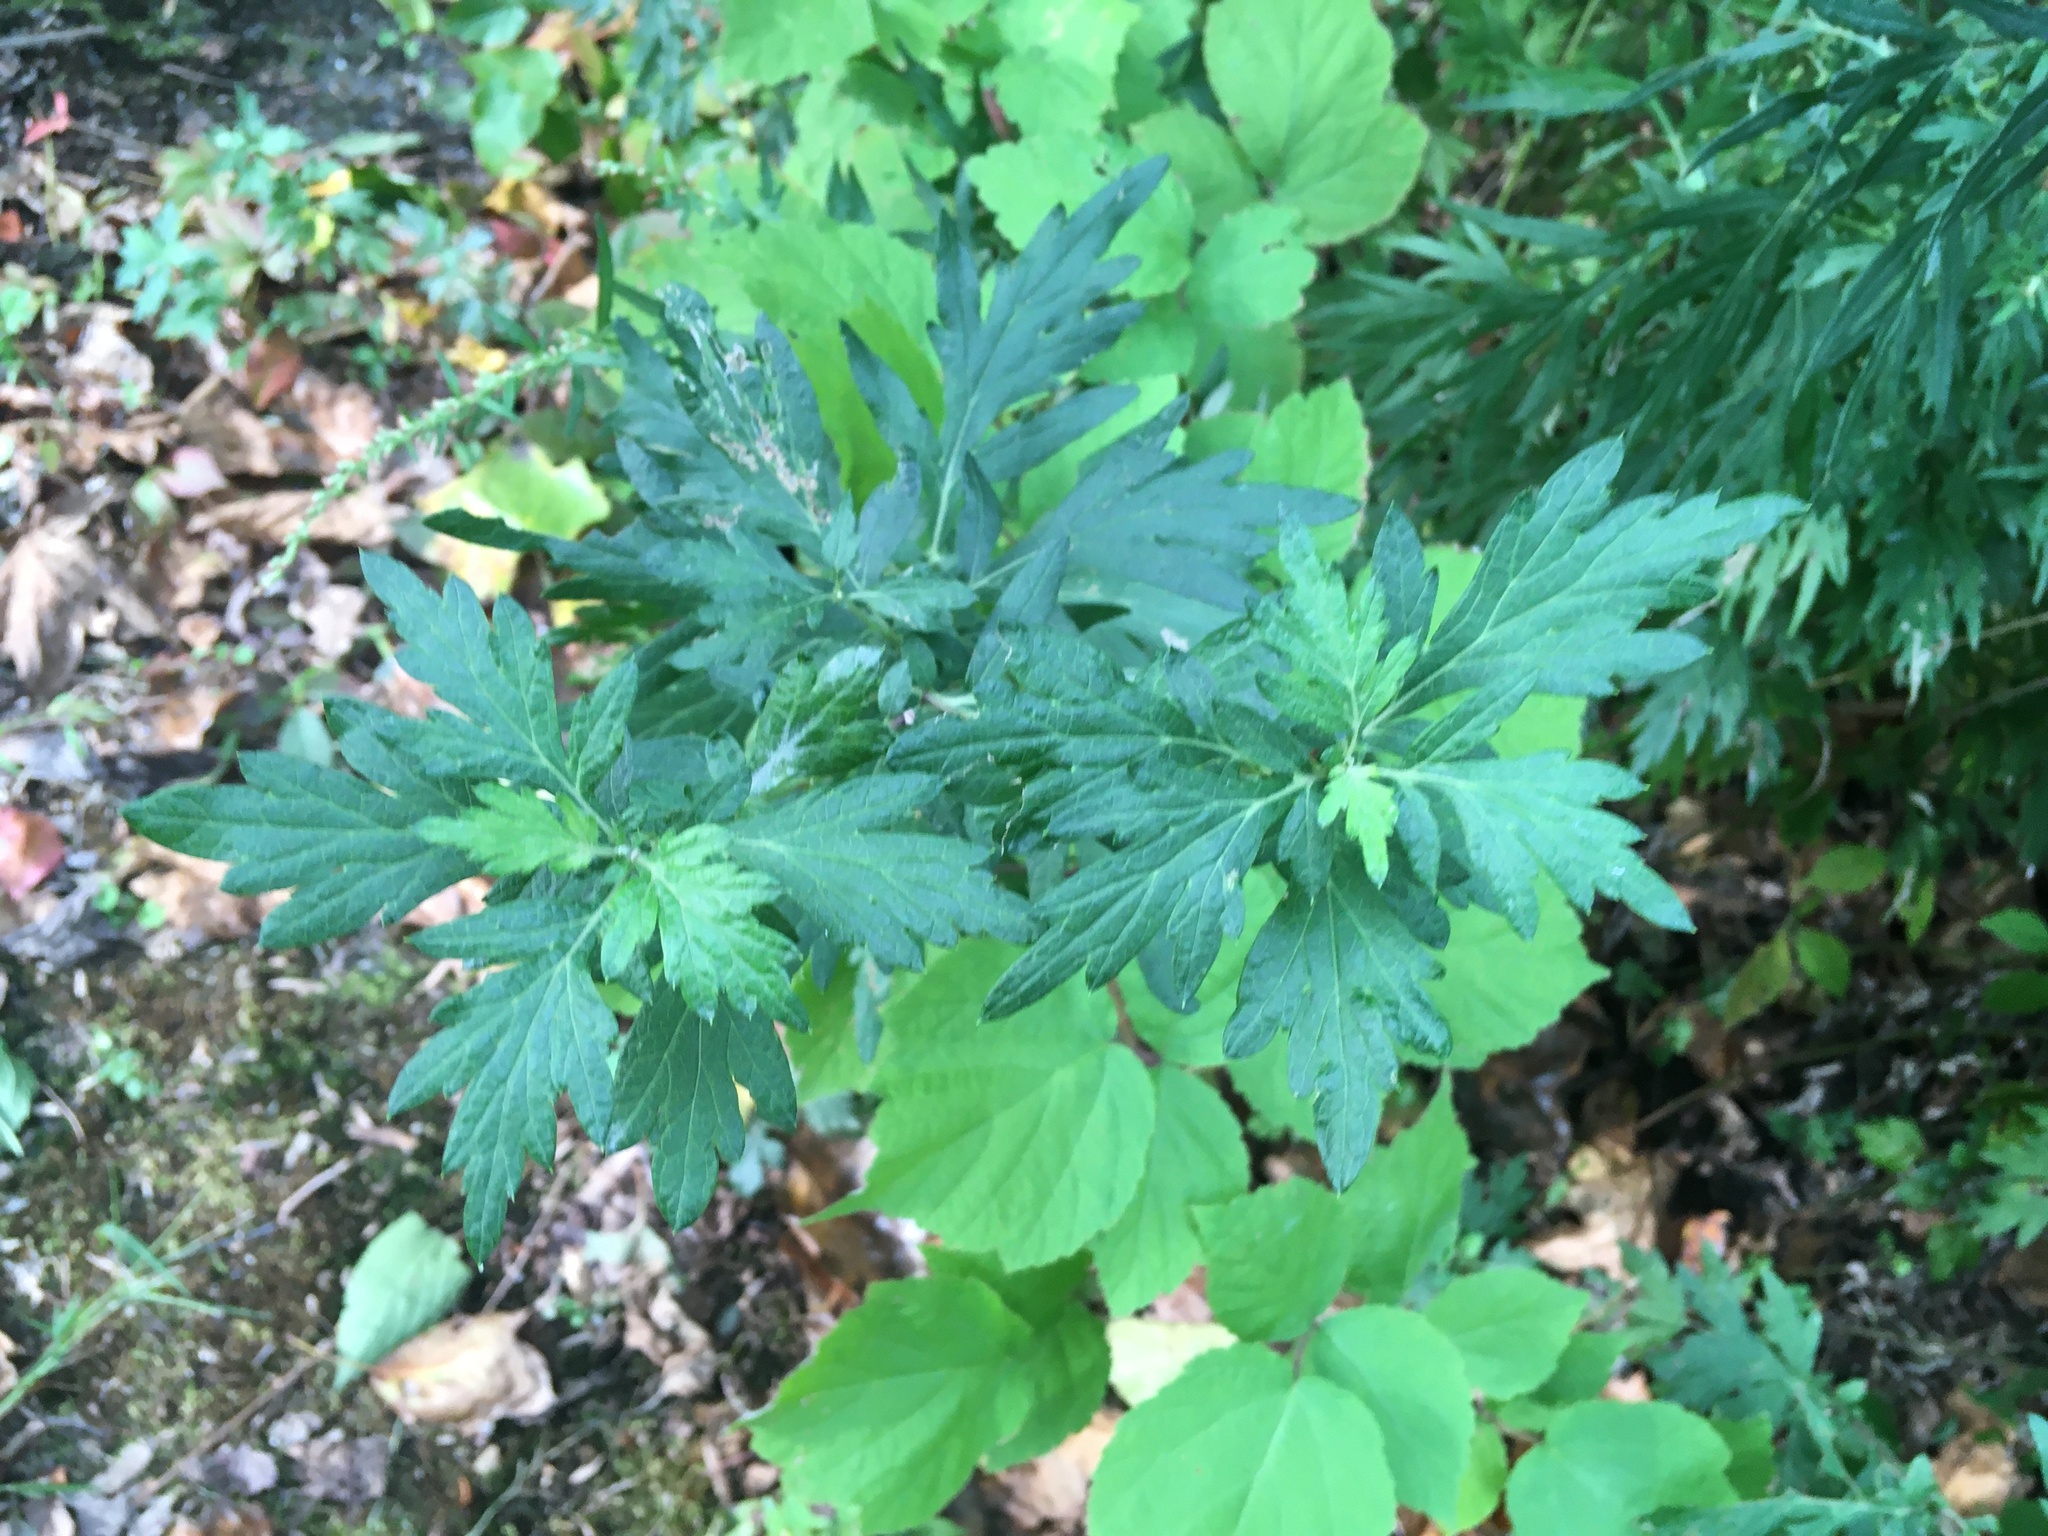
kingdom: Plantae
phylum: Tracheophyta
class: Magnoliopsida
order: Asterales
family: Asteraceae
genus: Artemisia
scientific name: Artemisia vulgaris
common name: Mugwort
